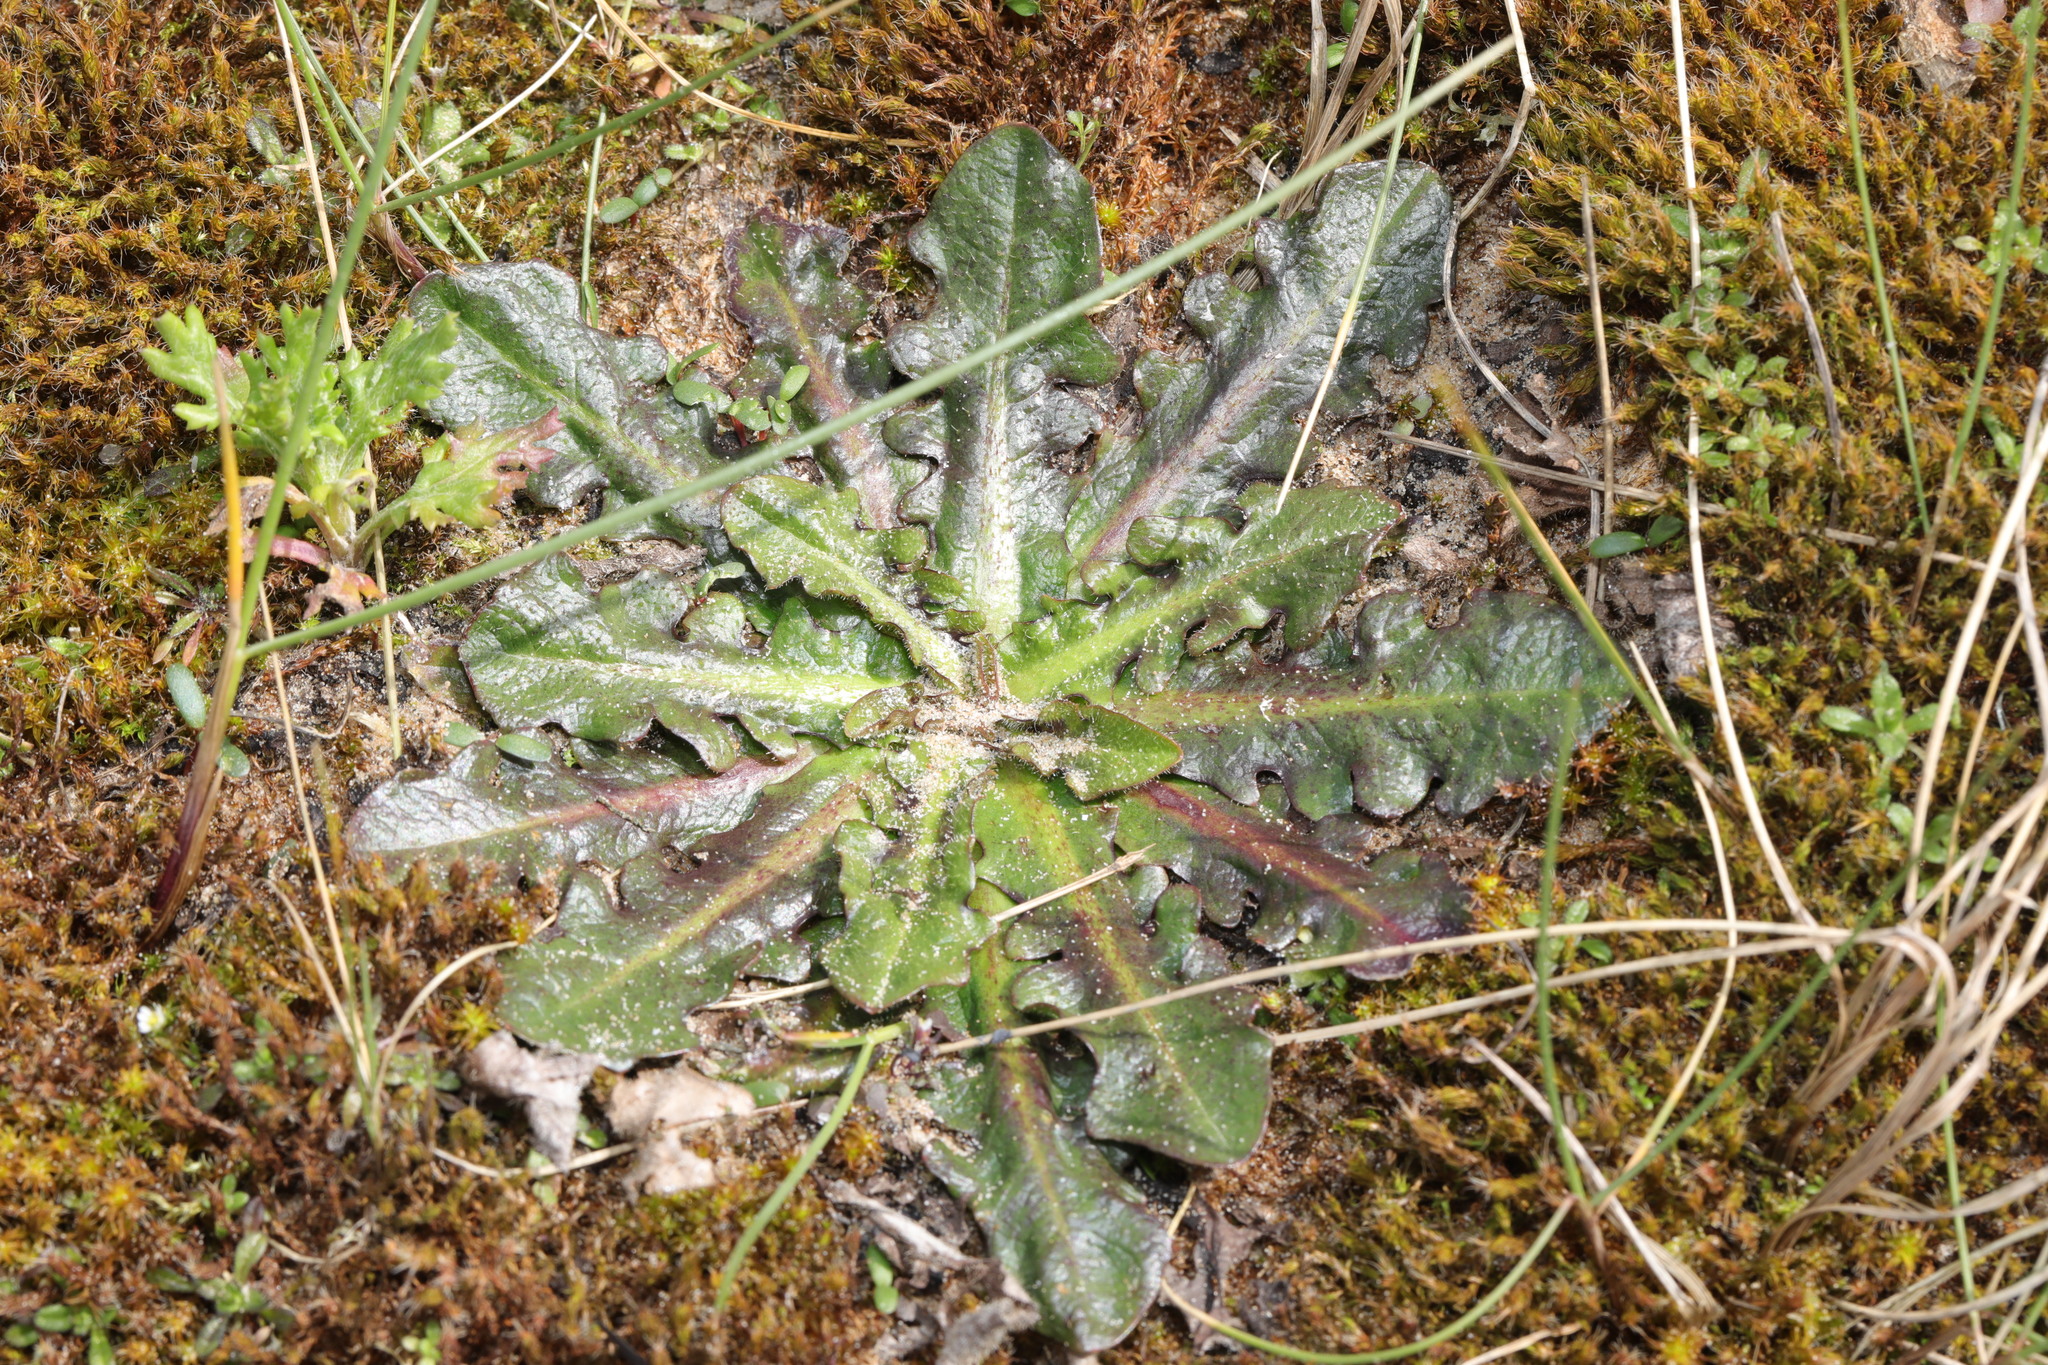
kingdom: Plantae
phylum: Tracheophyta
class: Magnoliopsida
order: Asterales
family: Asteraceae
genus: Hypochaeris
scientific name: Hypochaeris radicata
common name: Flatweed
